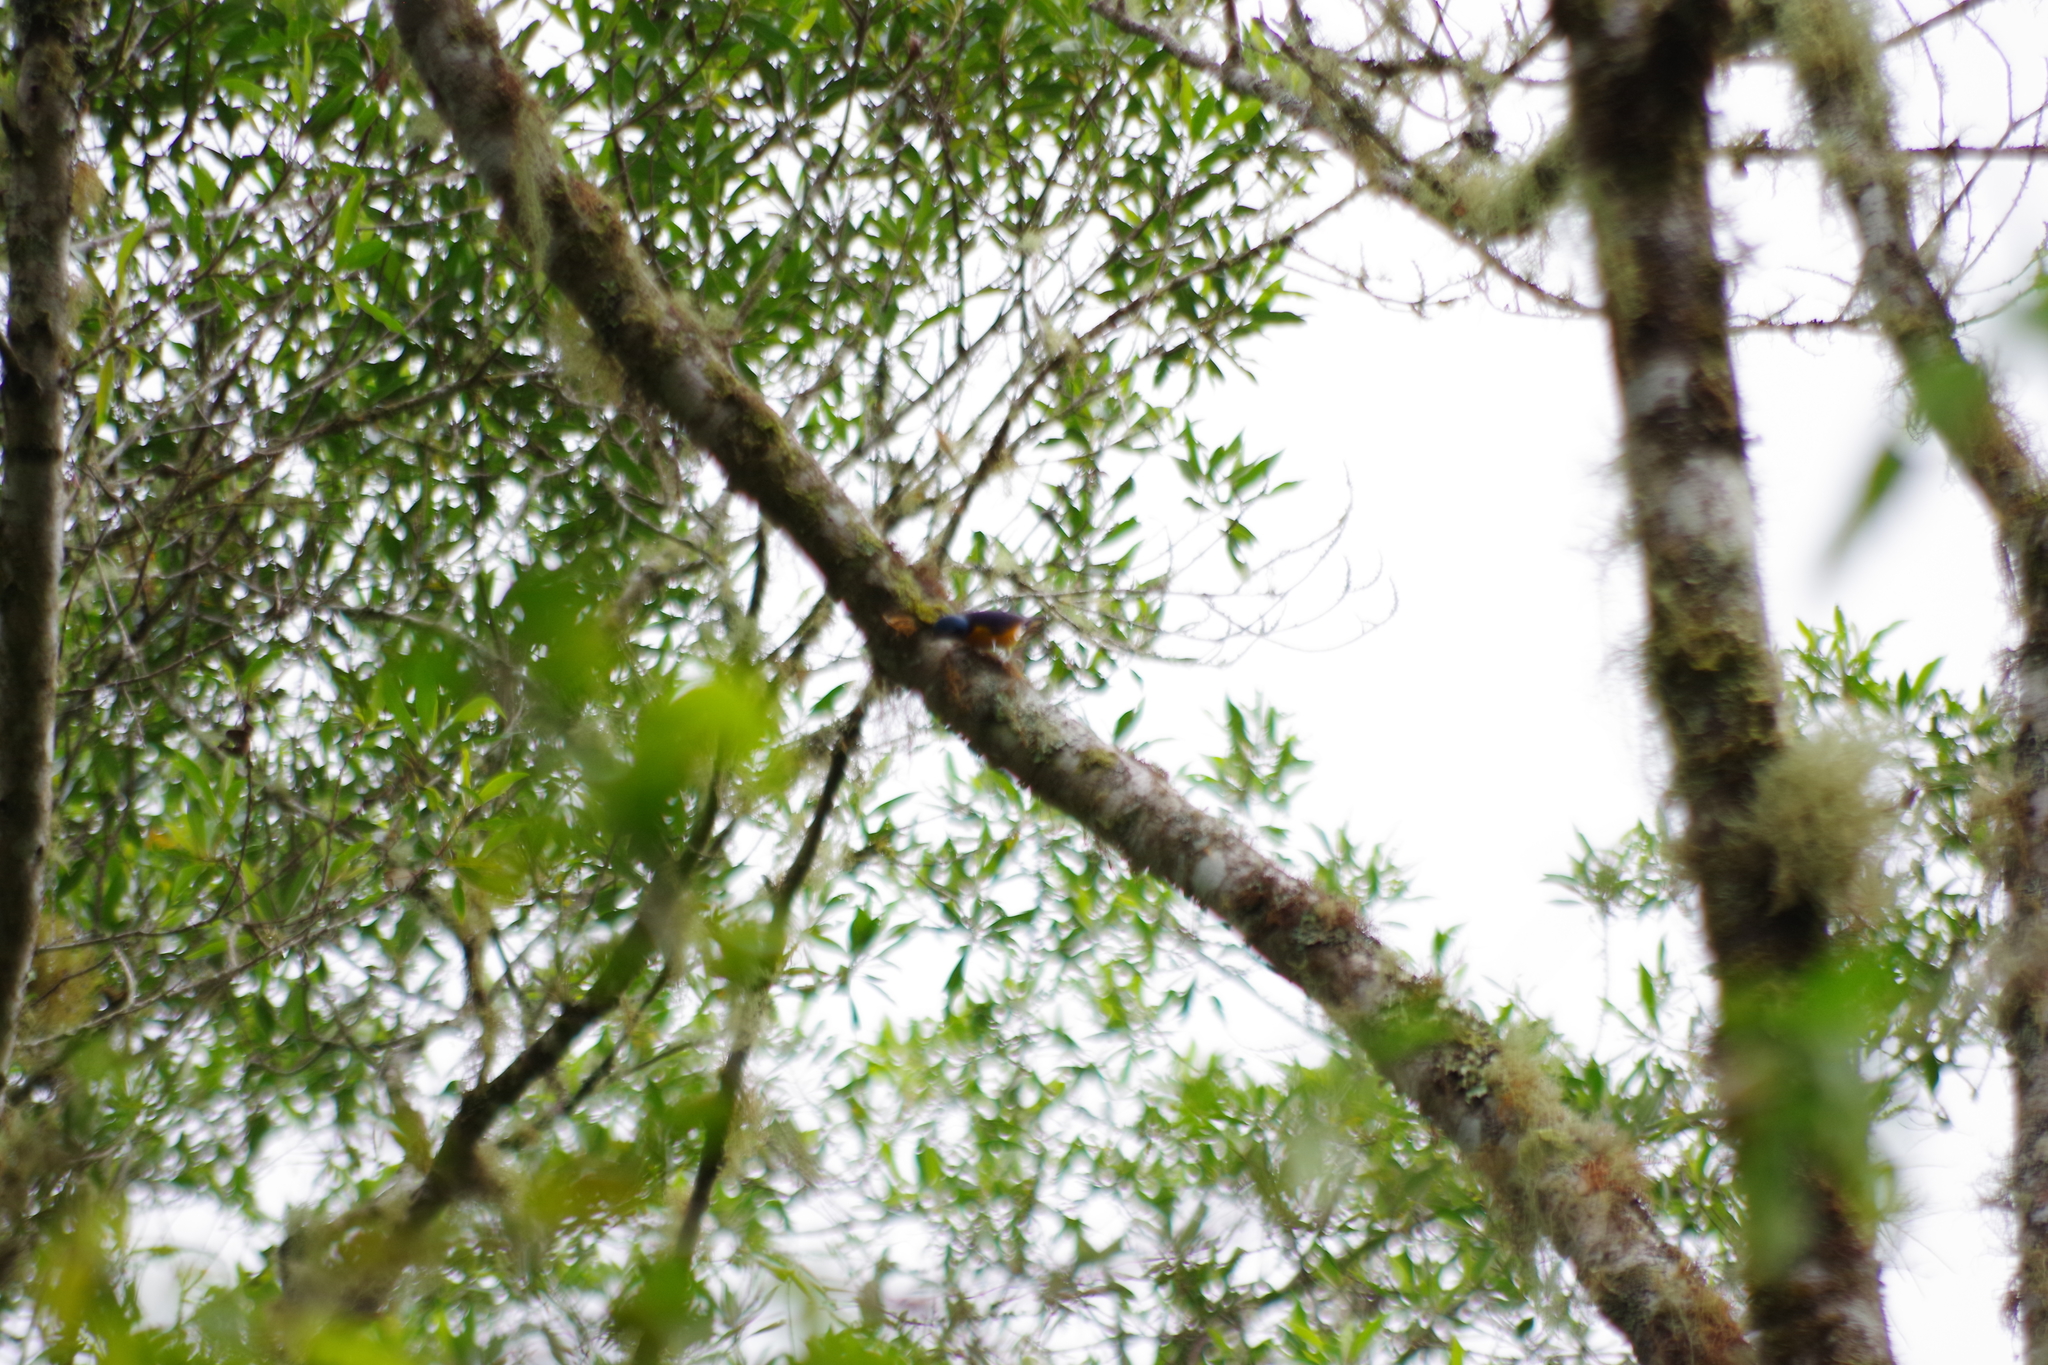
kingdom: Animalia
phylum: Chordata
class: Aves
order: Passeriformes
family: Fringillidae
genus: Euphonia
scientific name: Euphonia elegantissima
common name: Elegant euphonia
